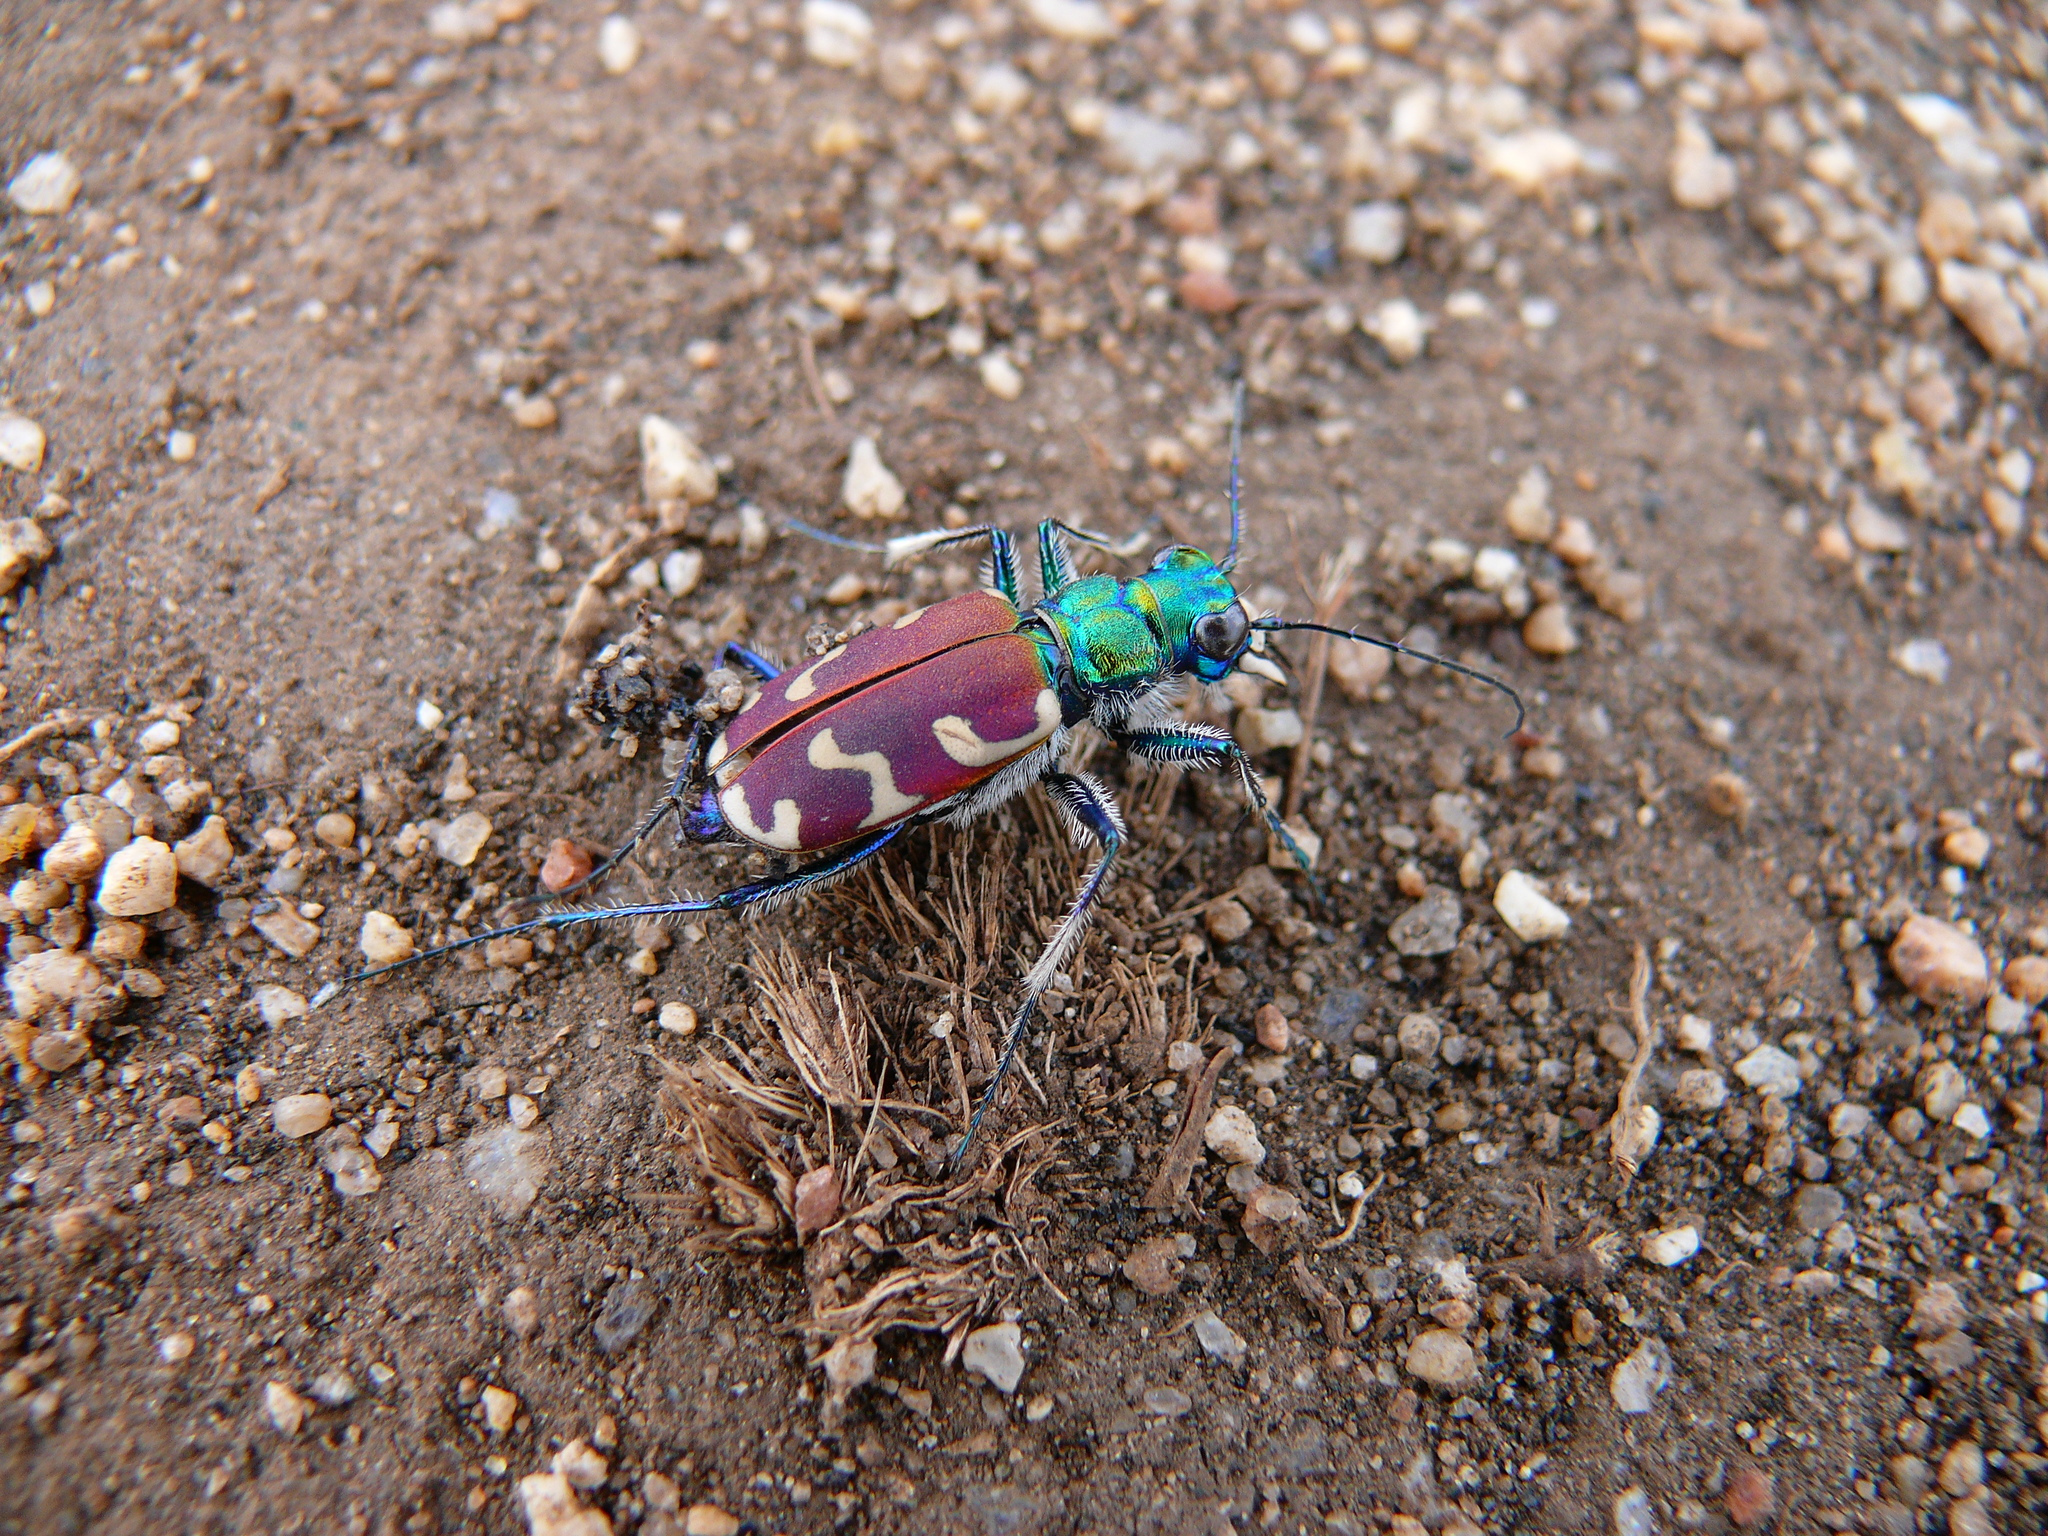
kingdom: Animalia
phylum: Arthropoda
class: Insecta
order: Coleoptera
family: Carabidae
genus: Cicindela
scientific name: Cicindela coerulea
